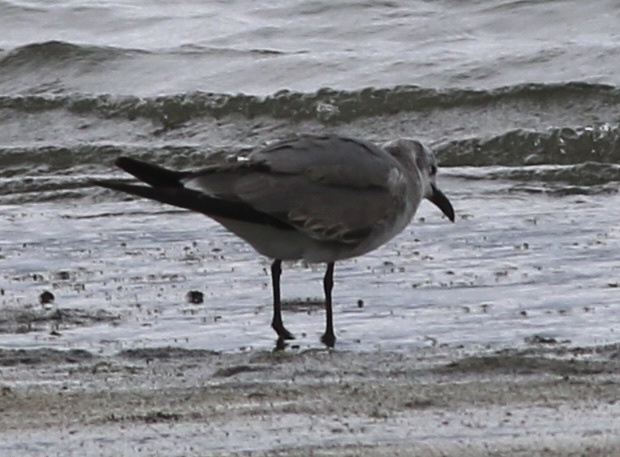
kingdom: Animalia
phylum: Chordata
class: Aves
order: Charadriiformes
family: Laridae
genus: Leucophaeus
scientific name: Leucophaeus atricilla
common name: Laughing gull
